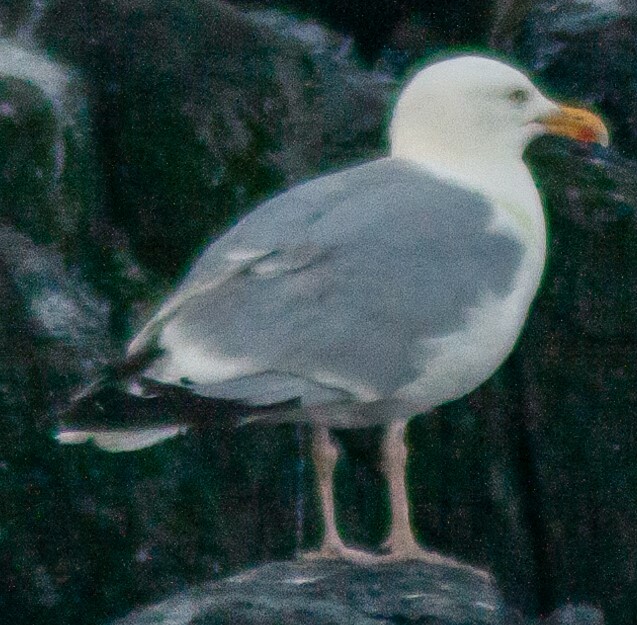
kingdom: Animalia
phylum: Chordata
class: Aves
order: Charadriiformes
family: Laridae
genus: Larus
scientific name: Larus argentatus
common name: Herring gull
